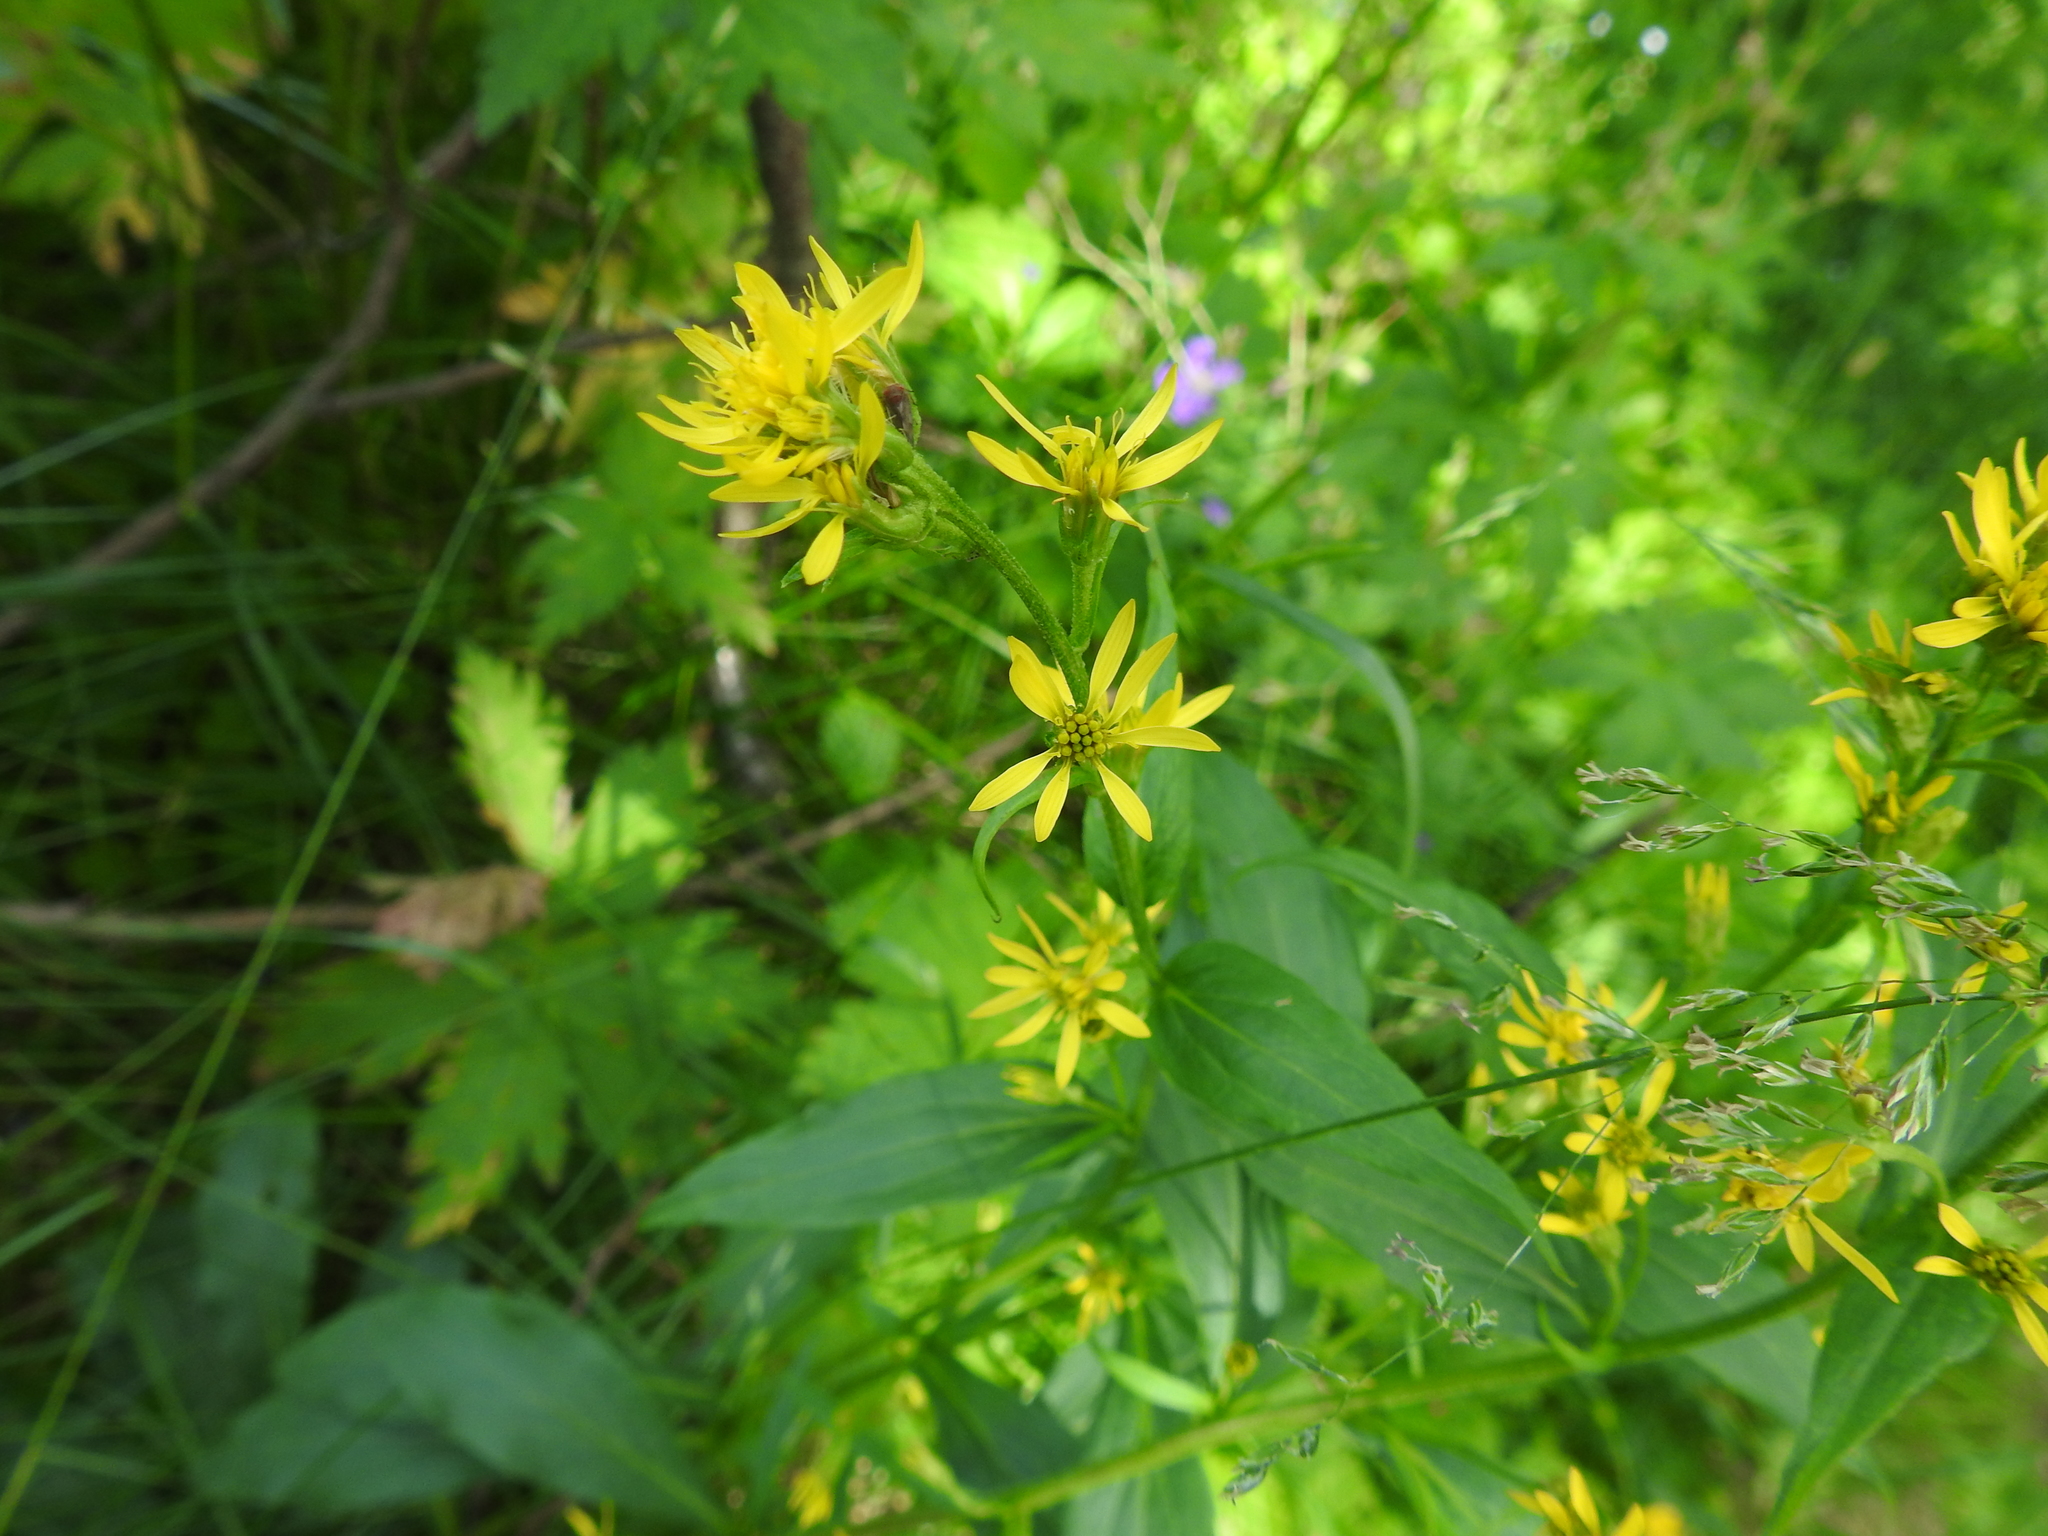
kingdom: Plantae
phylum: Tracheophyta
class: Magnoliopsida
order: Asterales
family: Asteraceae
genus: Solidago
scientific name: Solidago virgaurea
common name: Goldenrod
